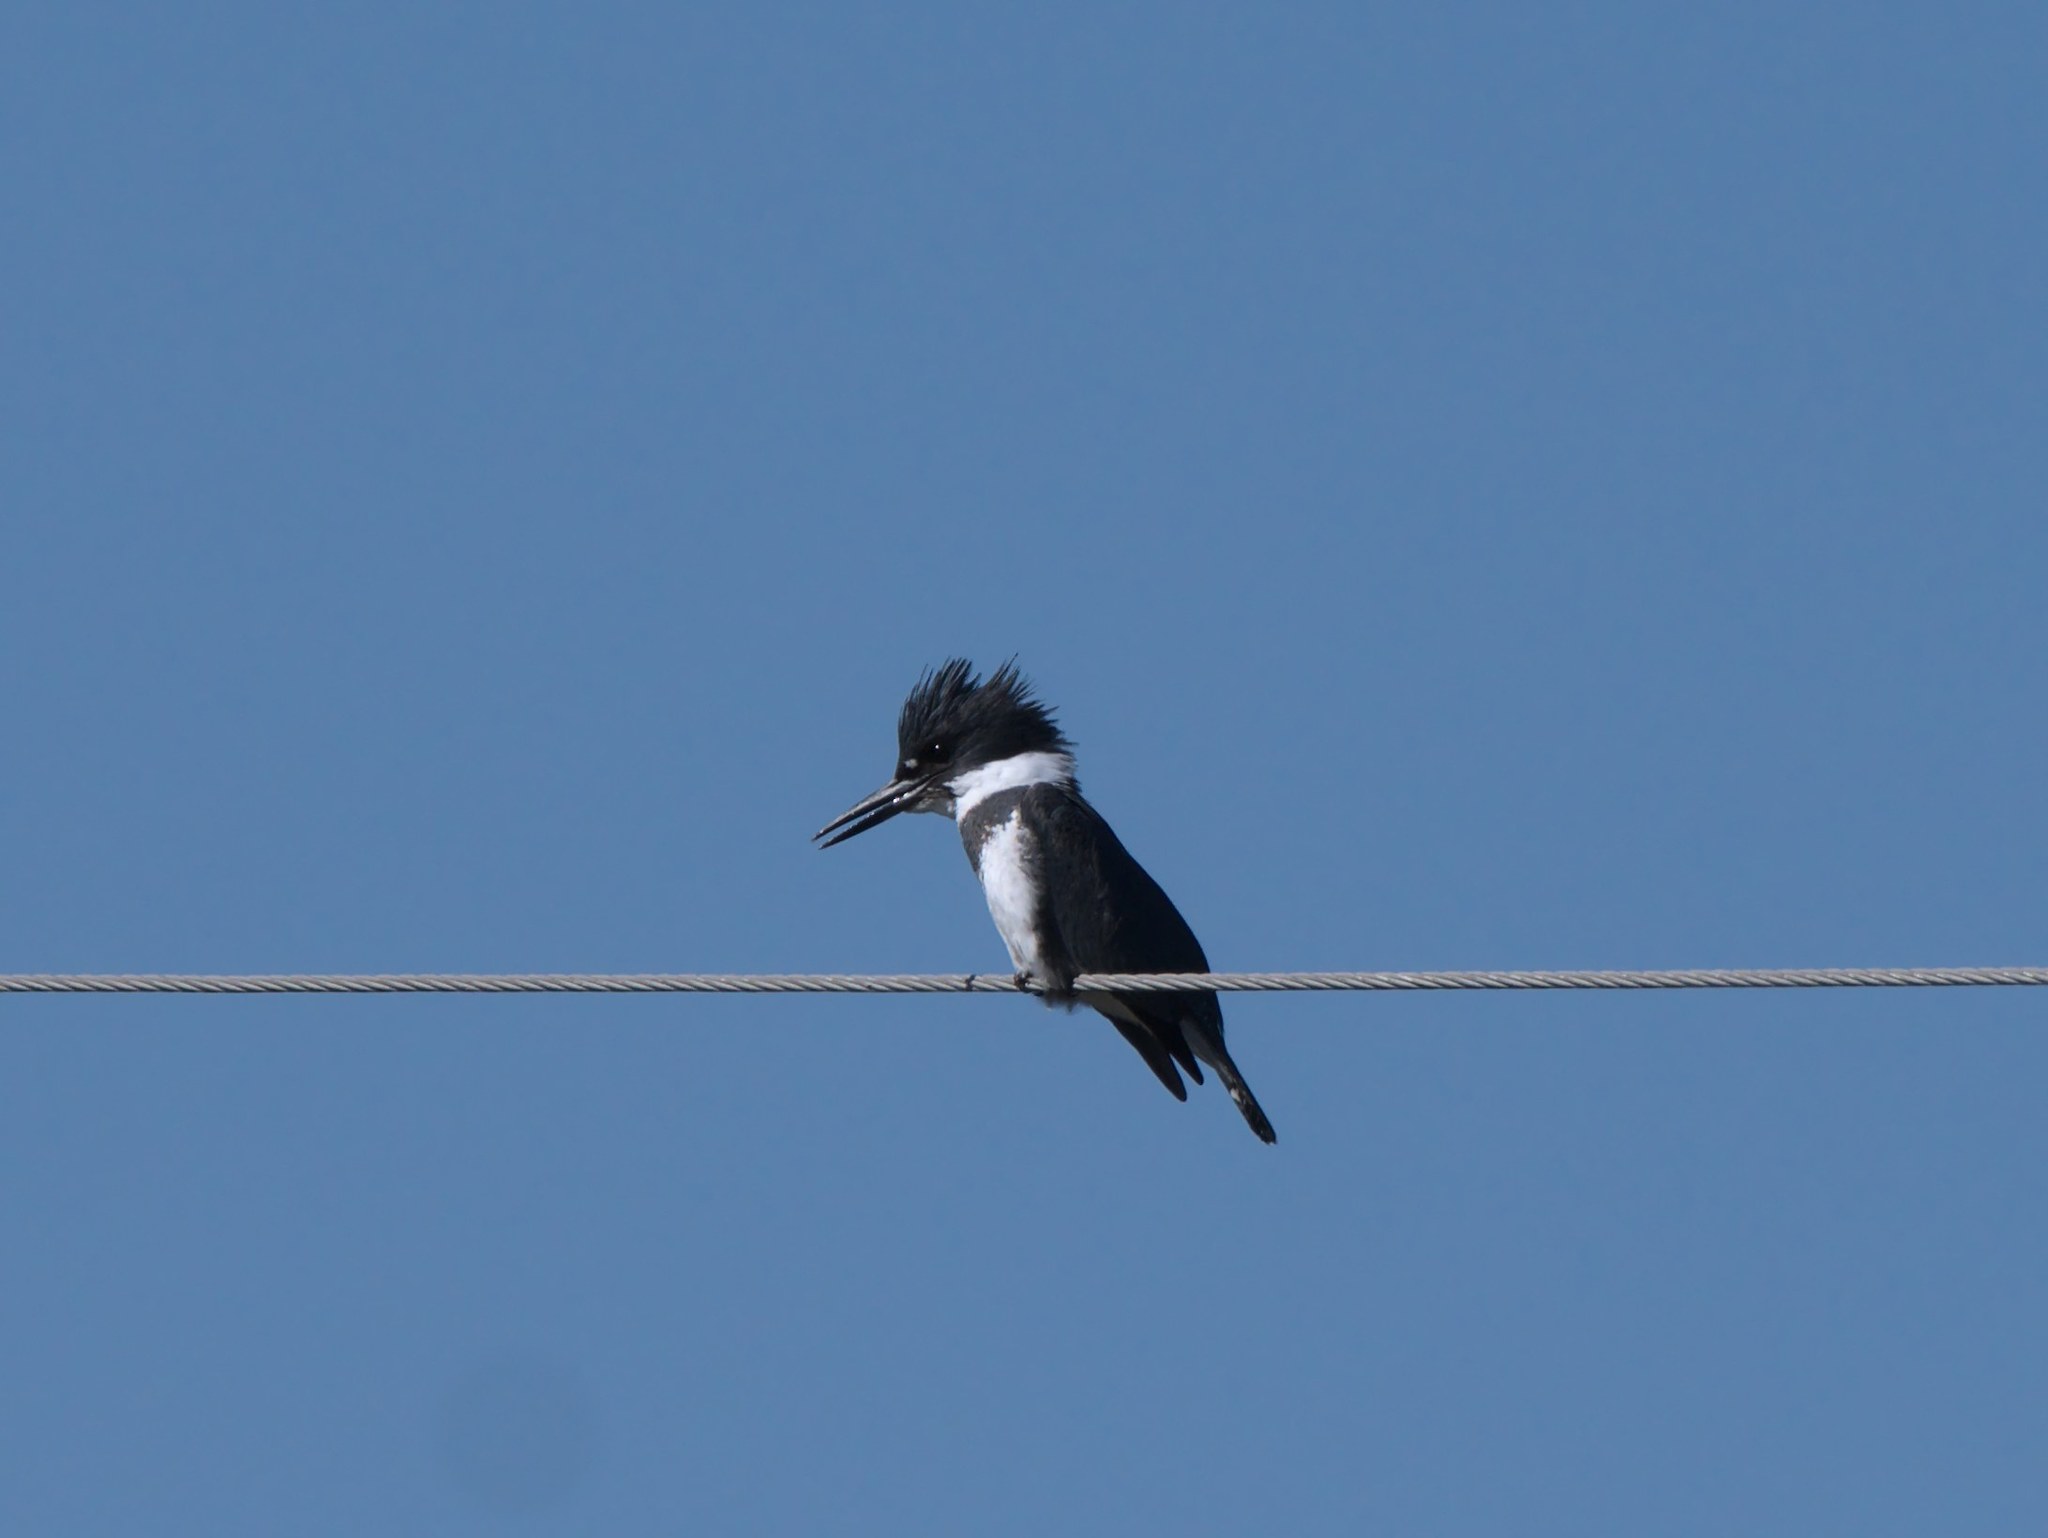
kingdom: Animalia
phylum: Chordata
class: Aves
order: Coraciiformes
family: Alcedinidae
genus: Megaceryle
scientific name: Megaceryle alcyon
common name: Belted kingfisher
